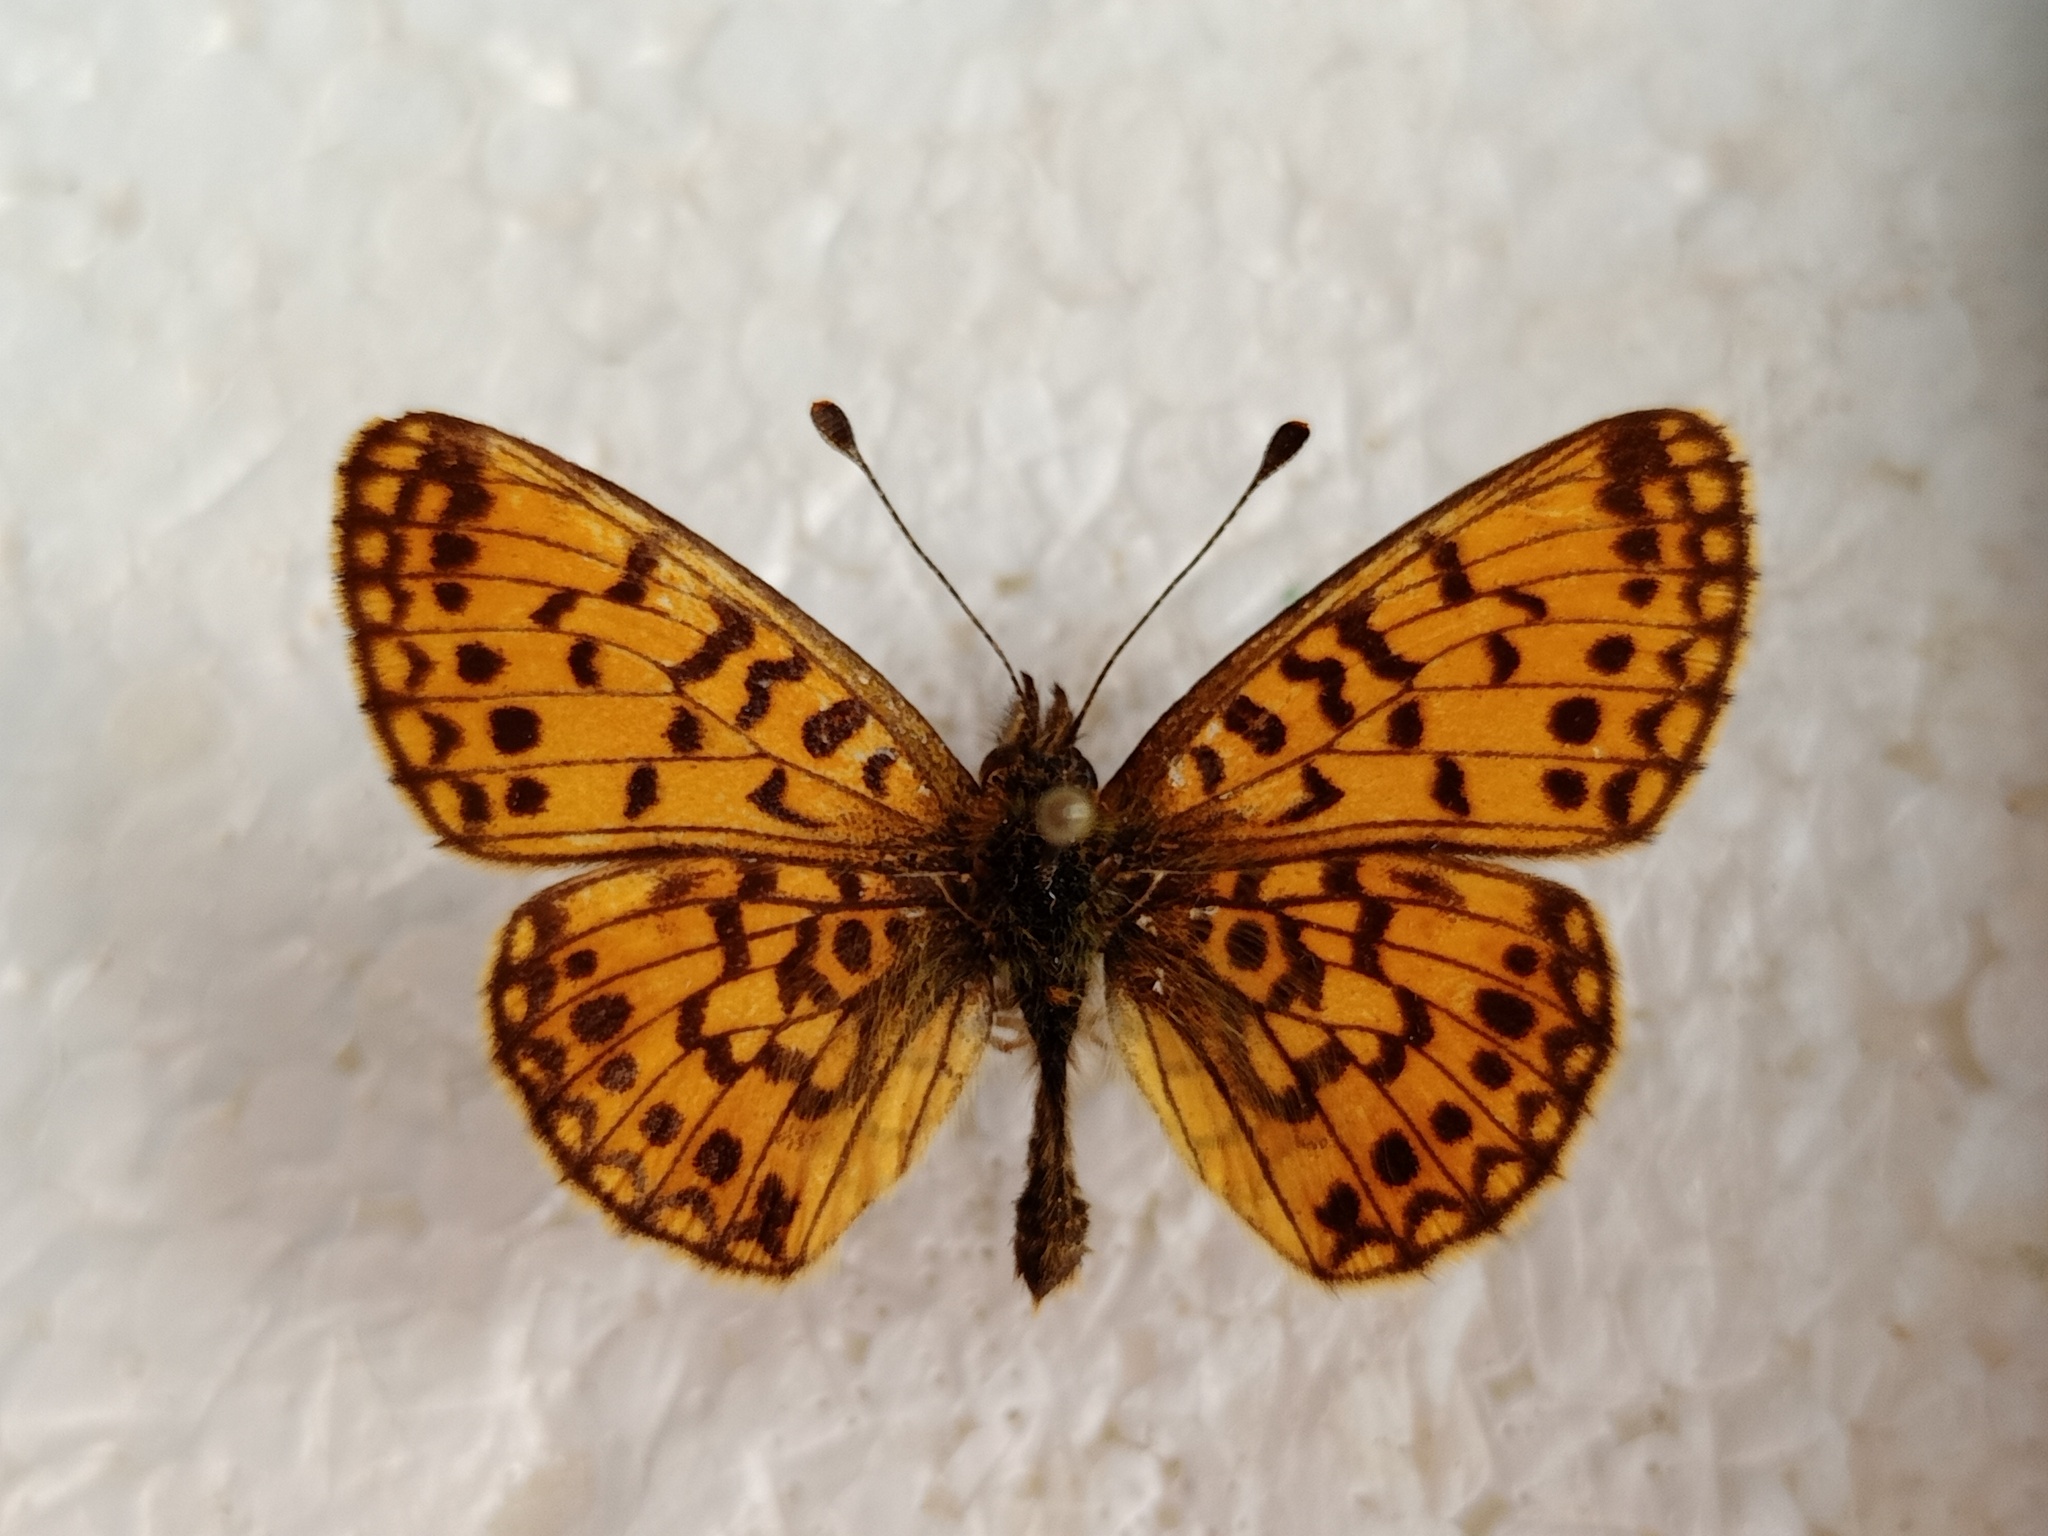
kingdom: Animalia
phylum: Arthropoda
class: Insecta
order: Lepidoptera
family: Nymphalidae
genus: Boloria
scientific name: Boloria selene
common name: Small pearl-bordered fritillary
